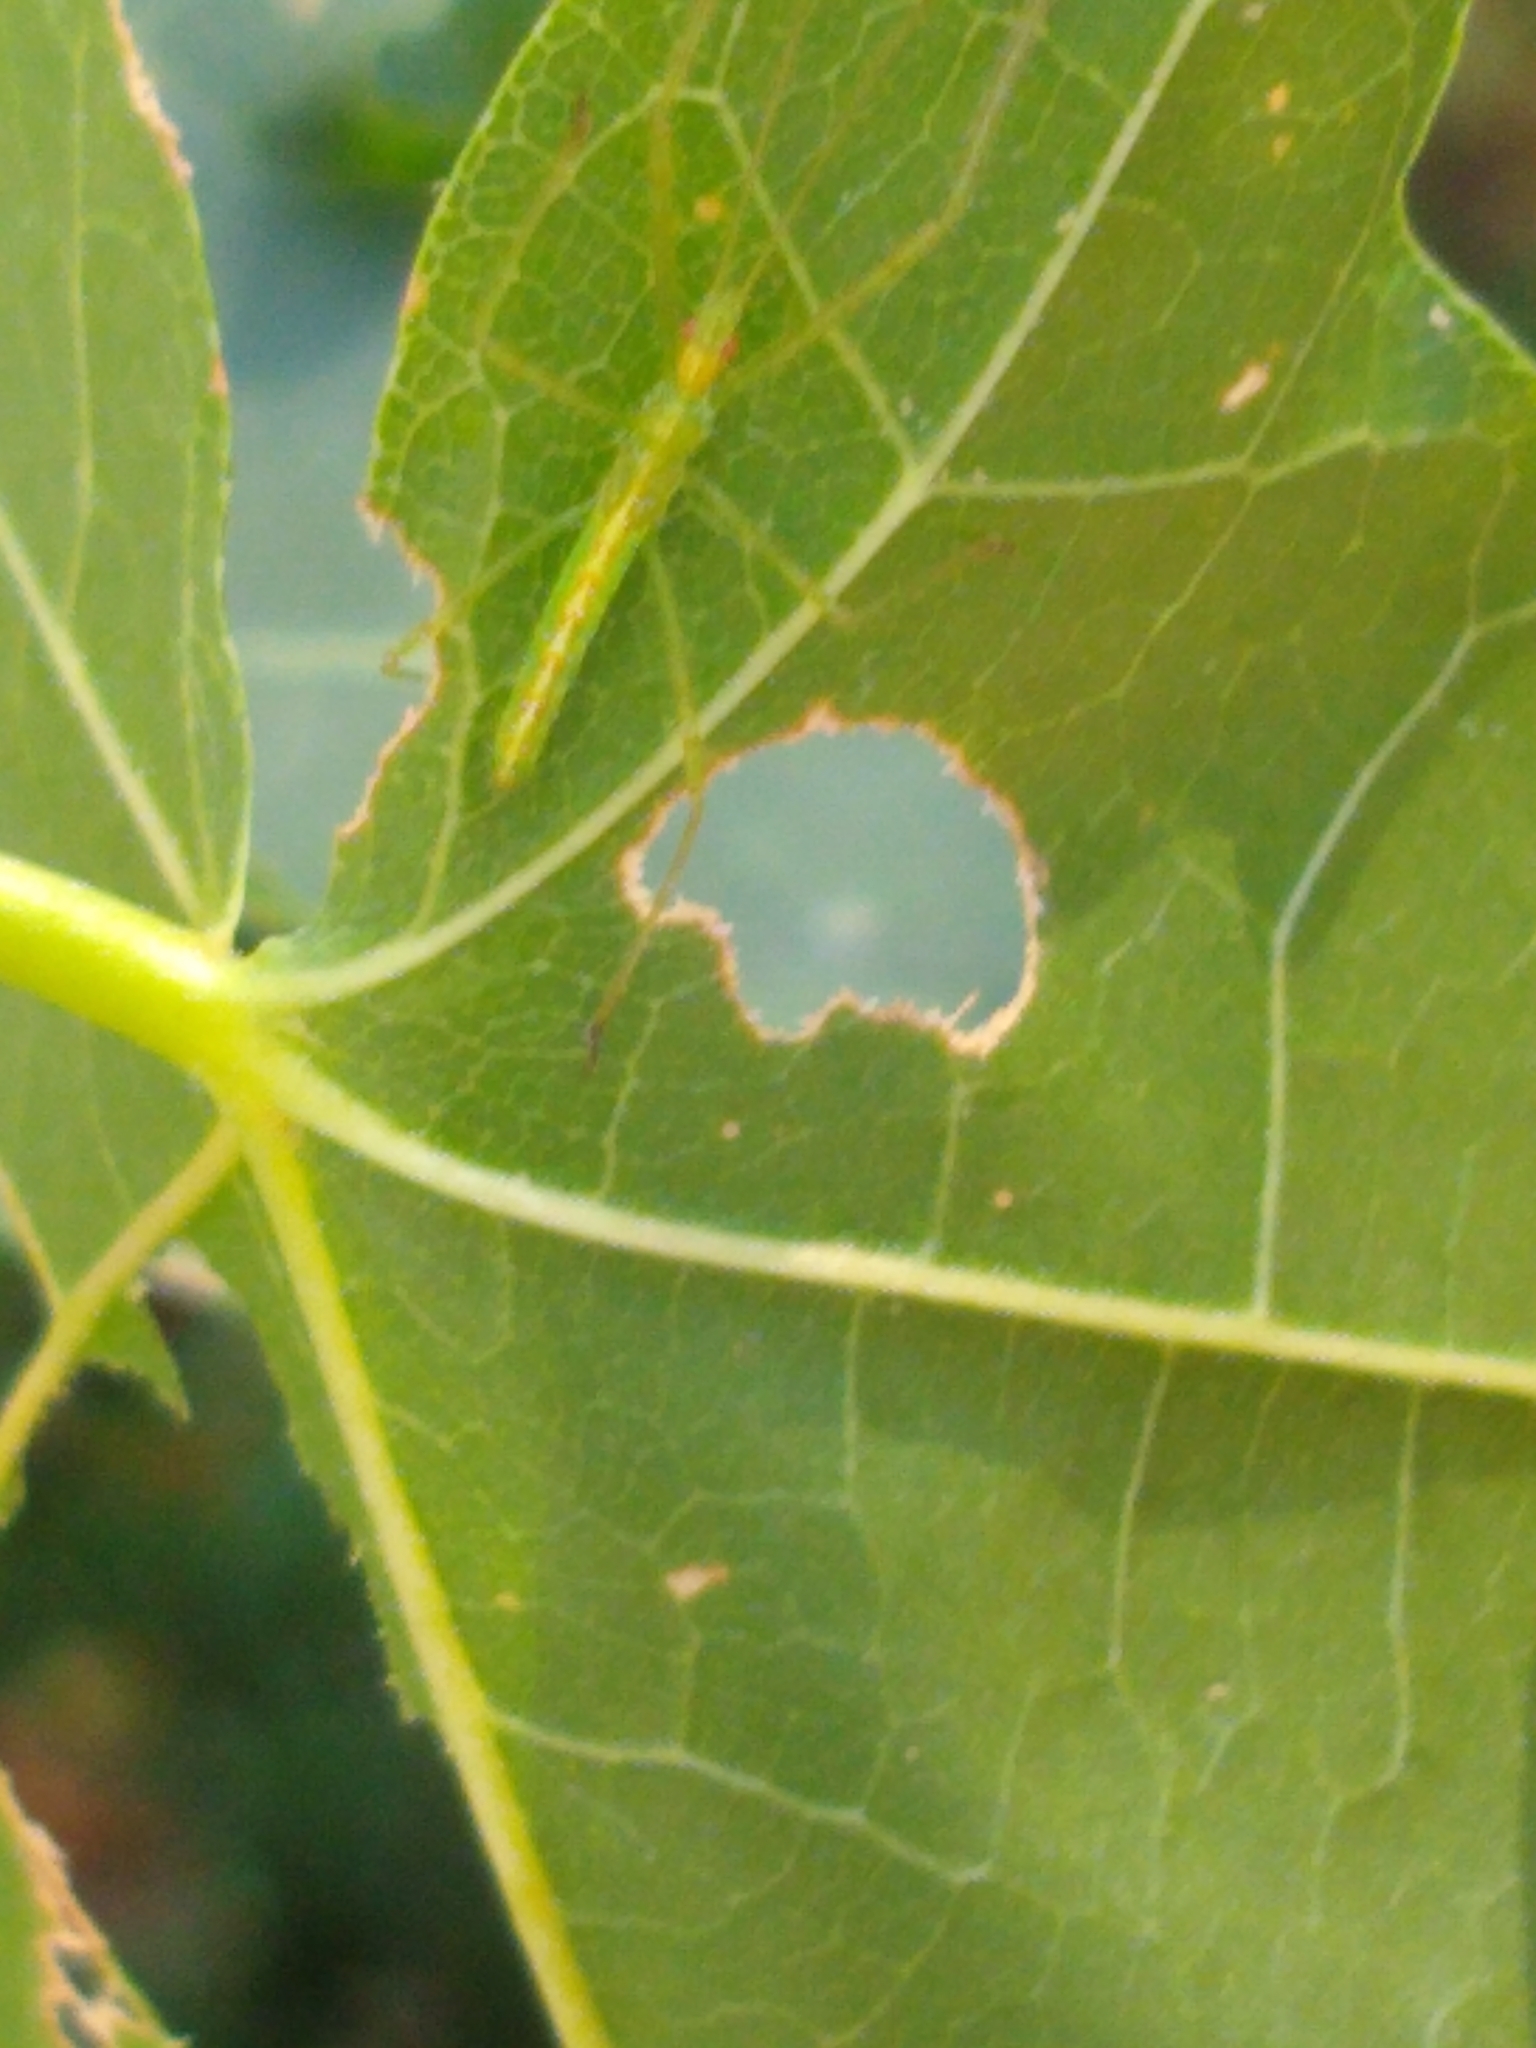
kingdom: Animalia
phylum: Arthropoda
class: Insecta
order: Hemiptera
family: Reduviidae
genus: Zelus
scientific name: Zelus luridus
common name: Pale green assassin bug
